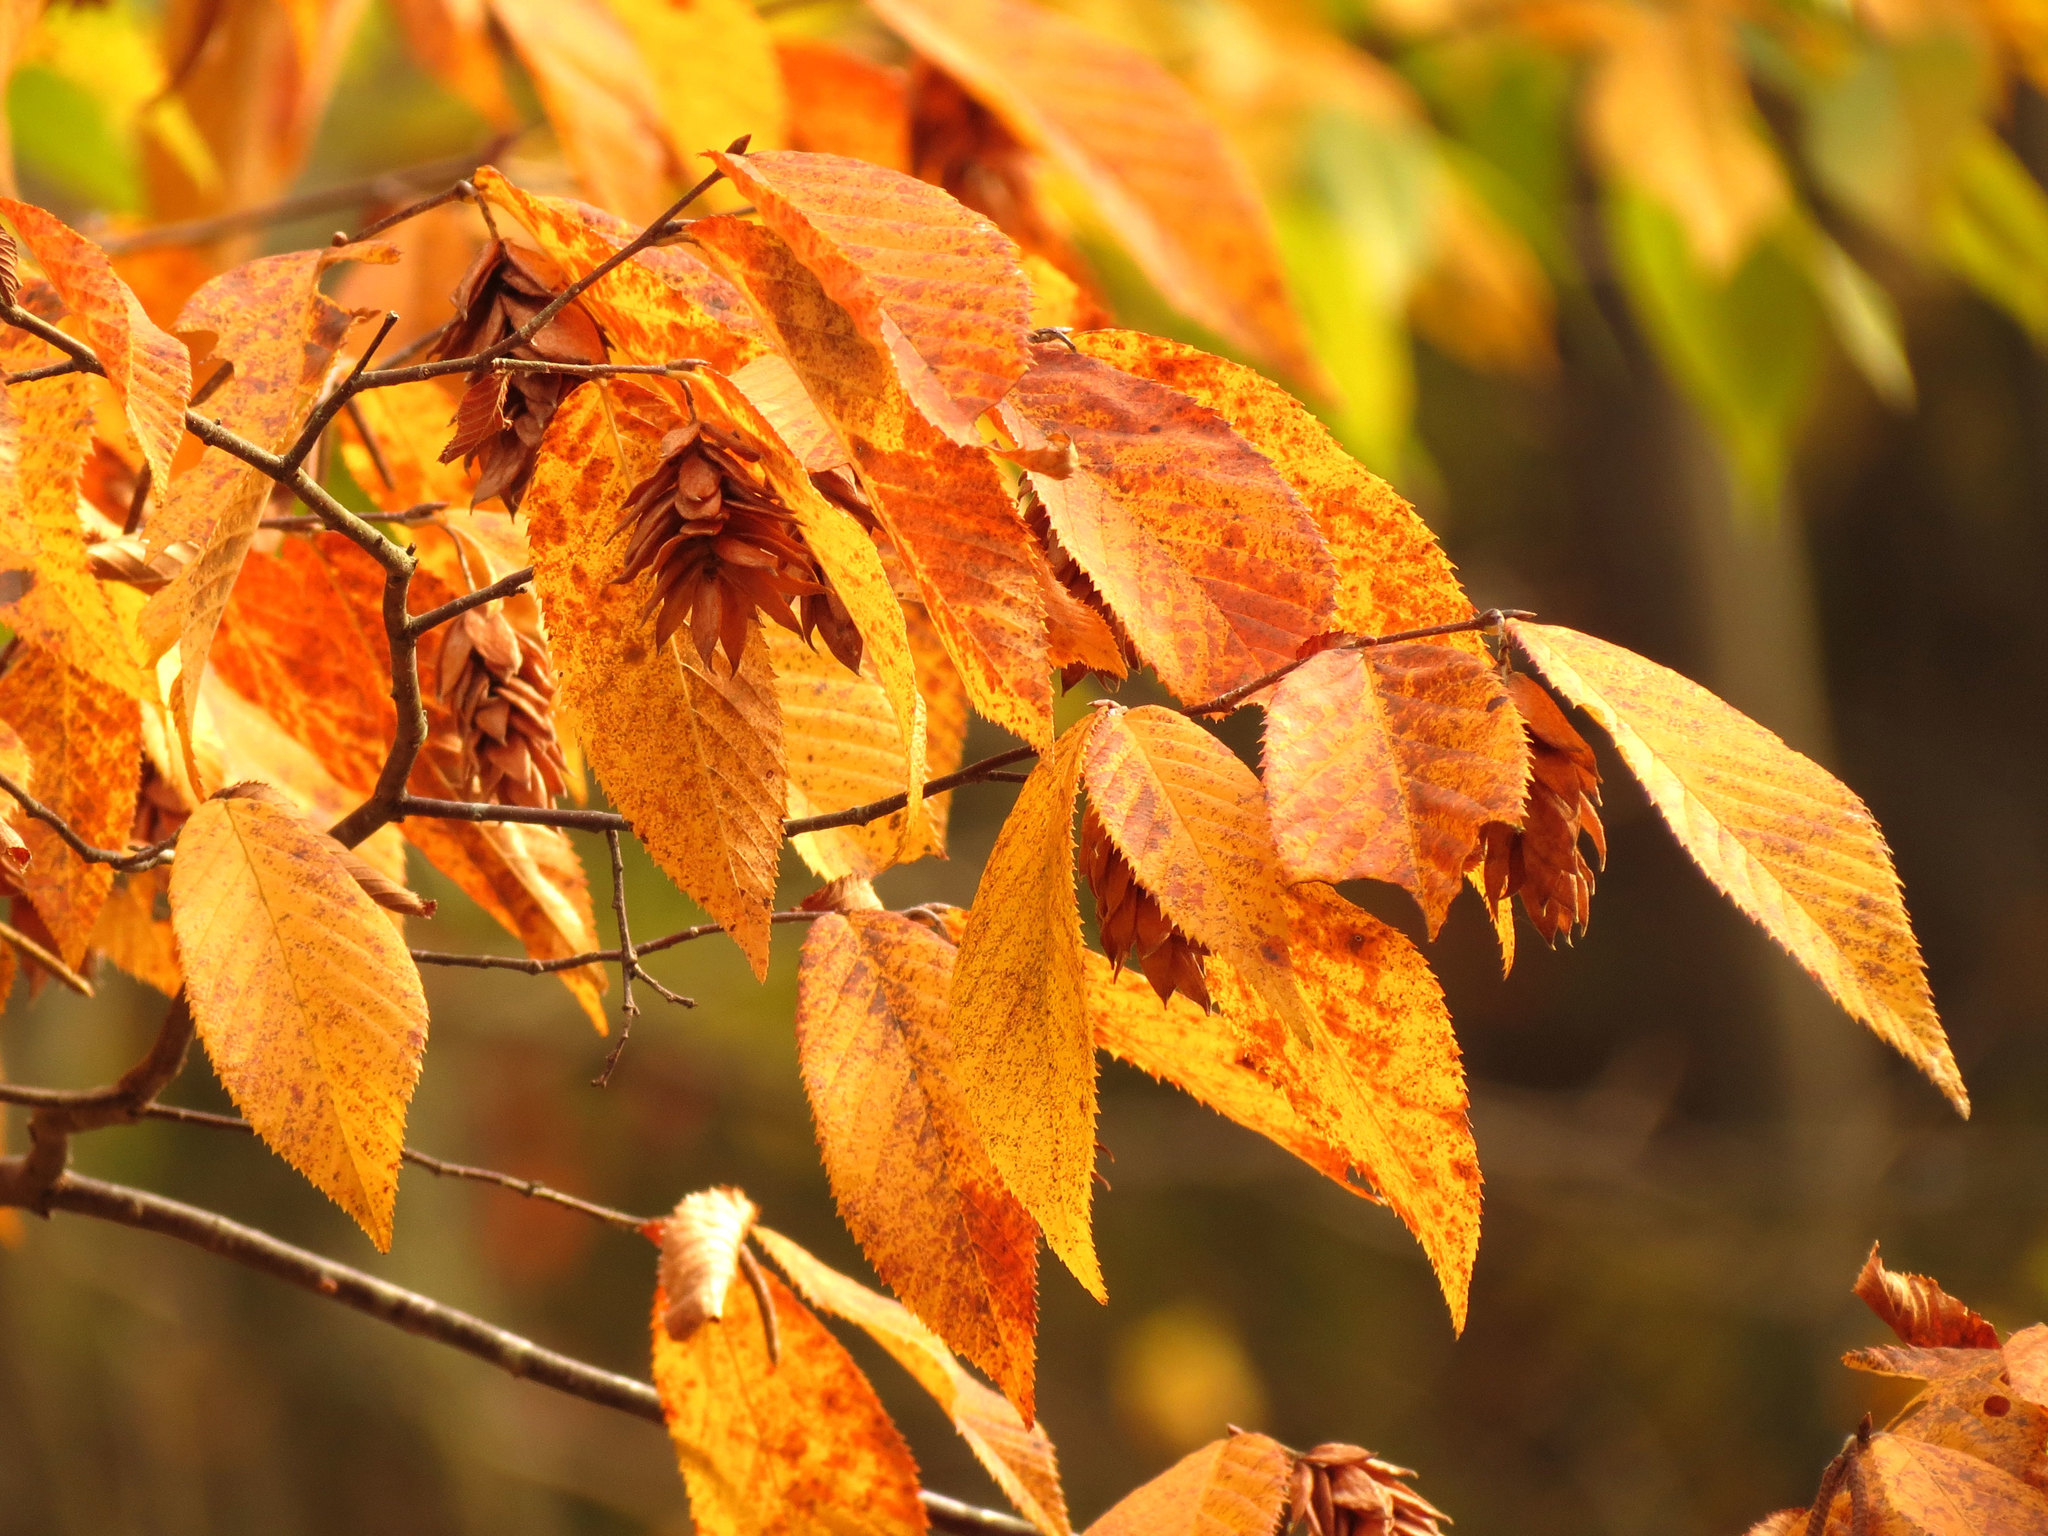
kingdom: Plantae
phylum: Tracheophyta
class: Magnoliopsida
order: Fagales
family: Betulaceae
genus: Ostrya
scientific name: Ostrya virginiana
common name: Ironwood
